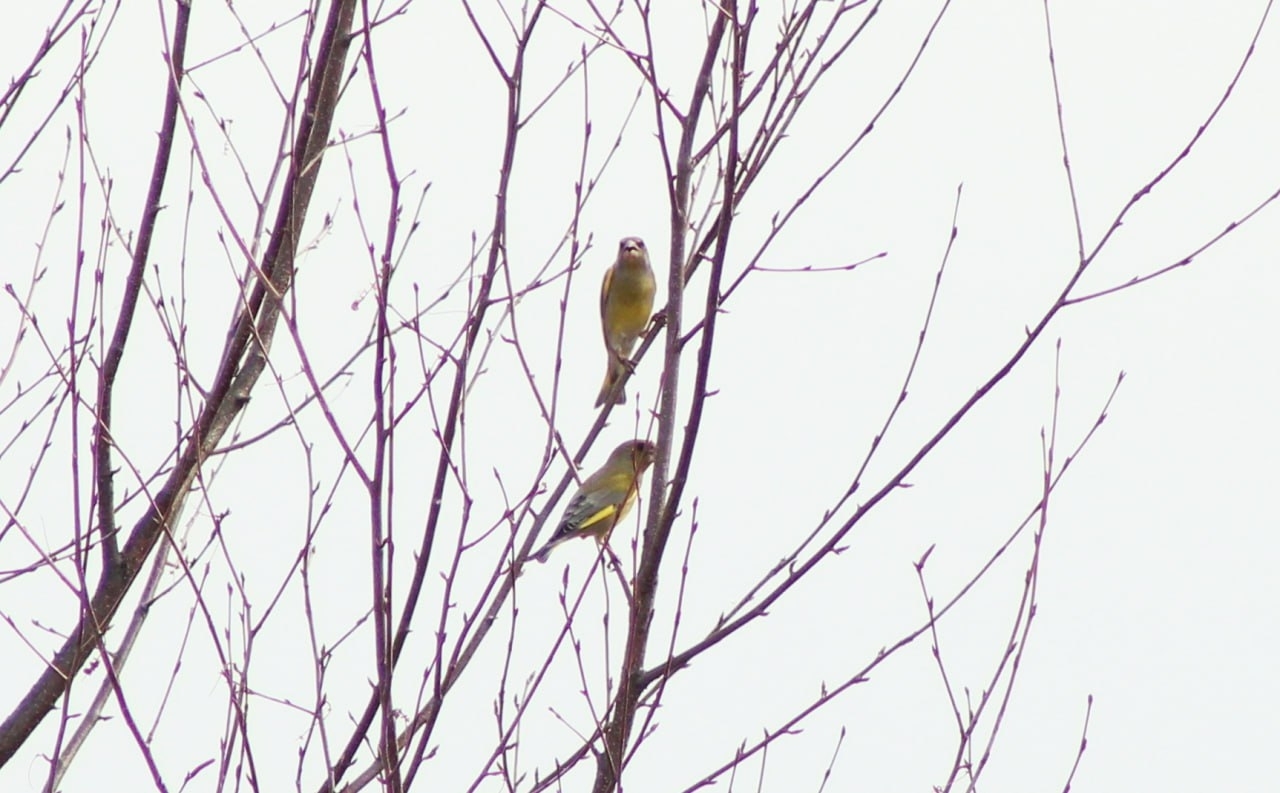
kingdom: Plantae
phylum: Tracheophyta
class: Liliopsida
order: Poales
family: Poaceae
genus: Chloris
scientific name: Chloris chloris
